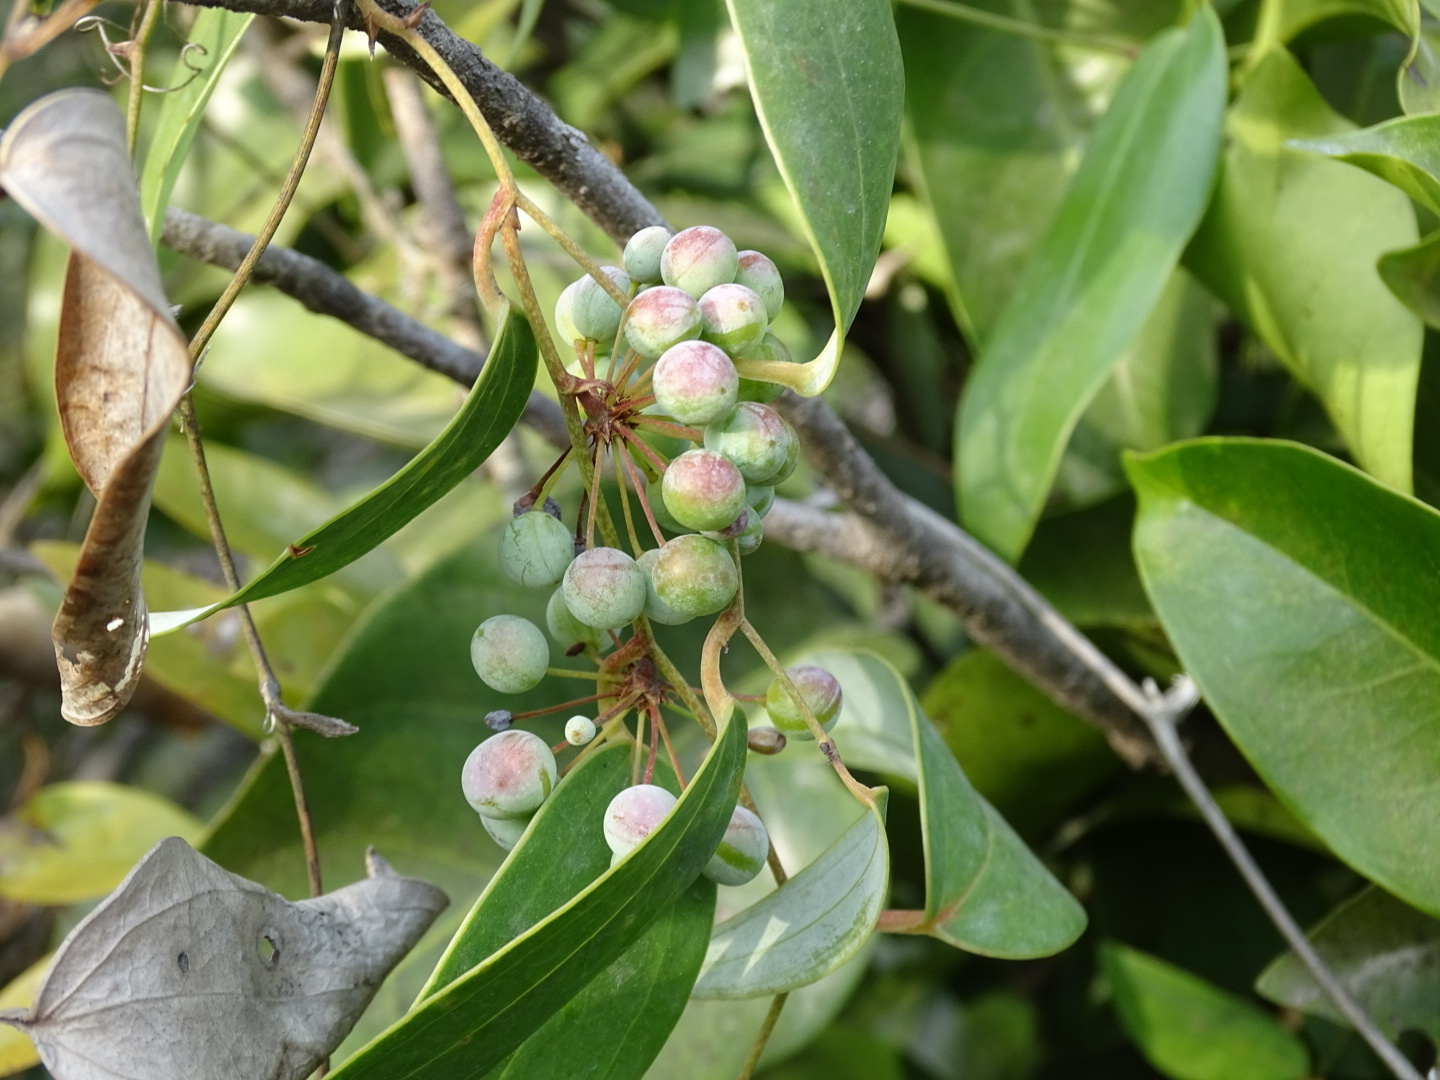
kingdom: Plantae
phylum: Tracheophyta
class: Liliopsida
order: Liliales
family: Smilacaceae
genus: Smilax
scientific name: Smilax glabra
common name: Chinese smilax
